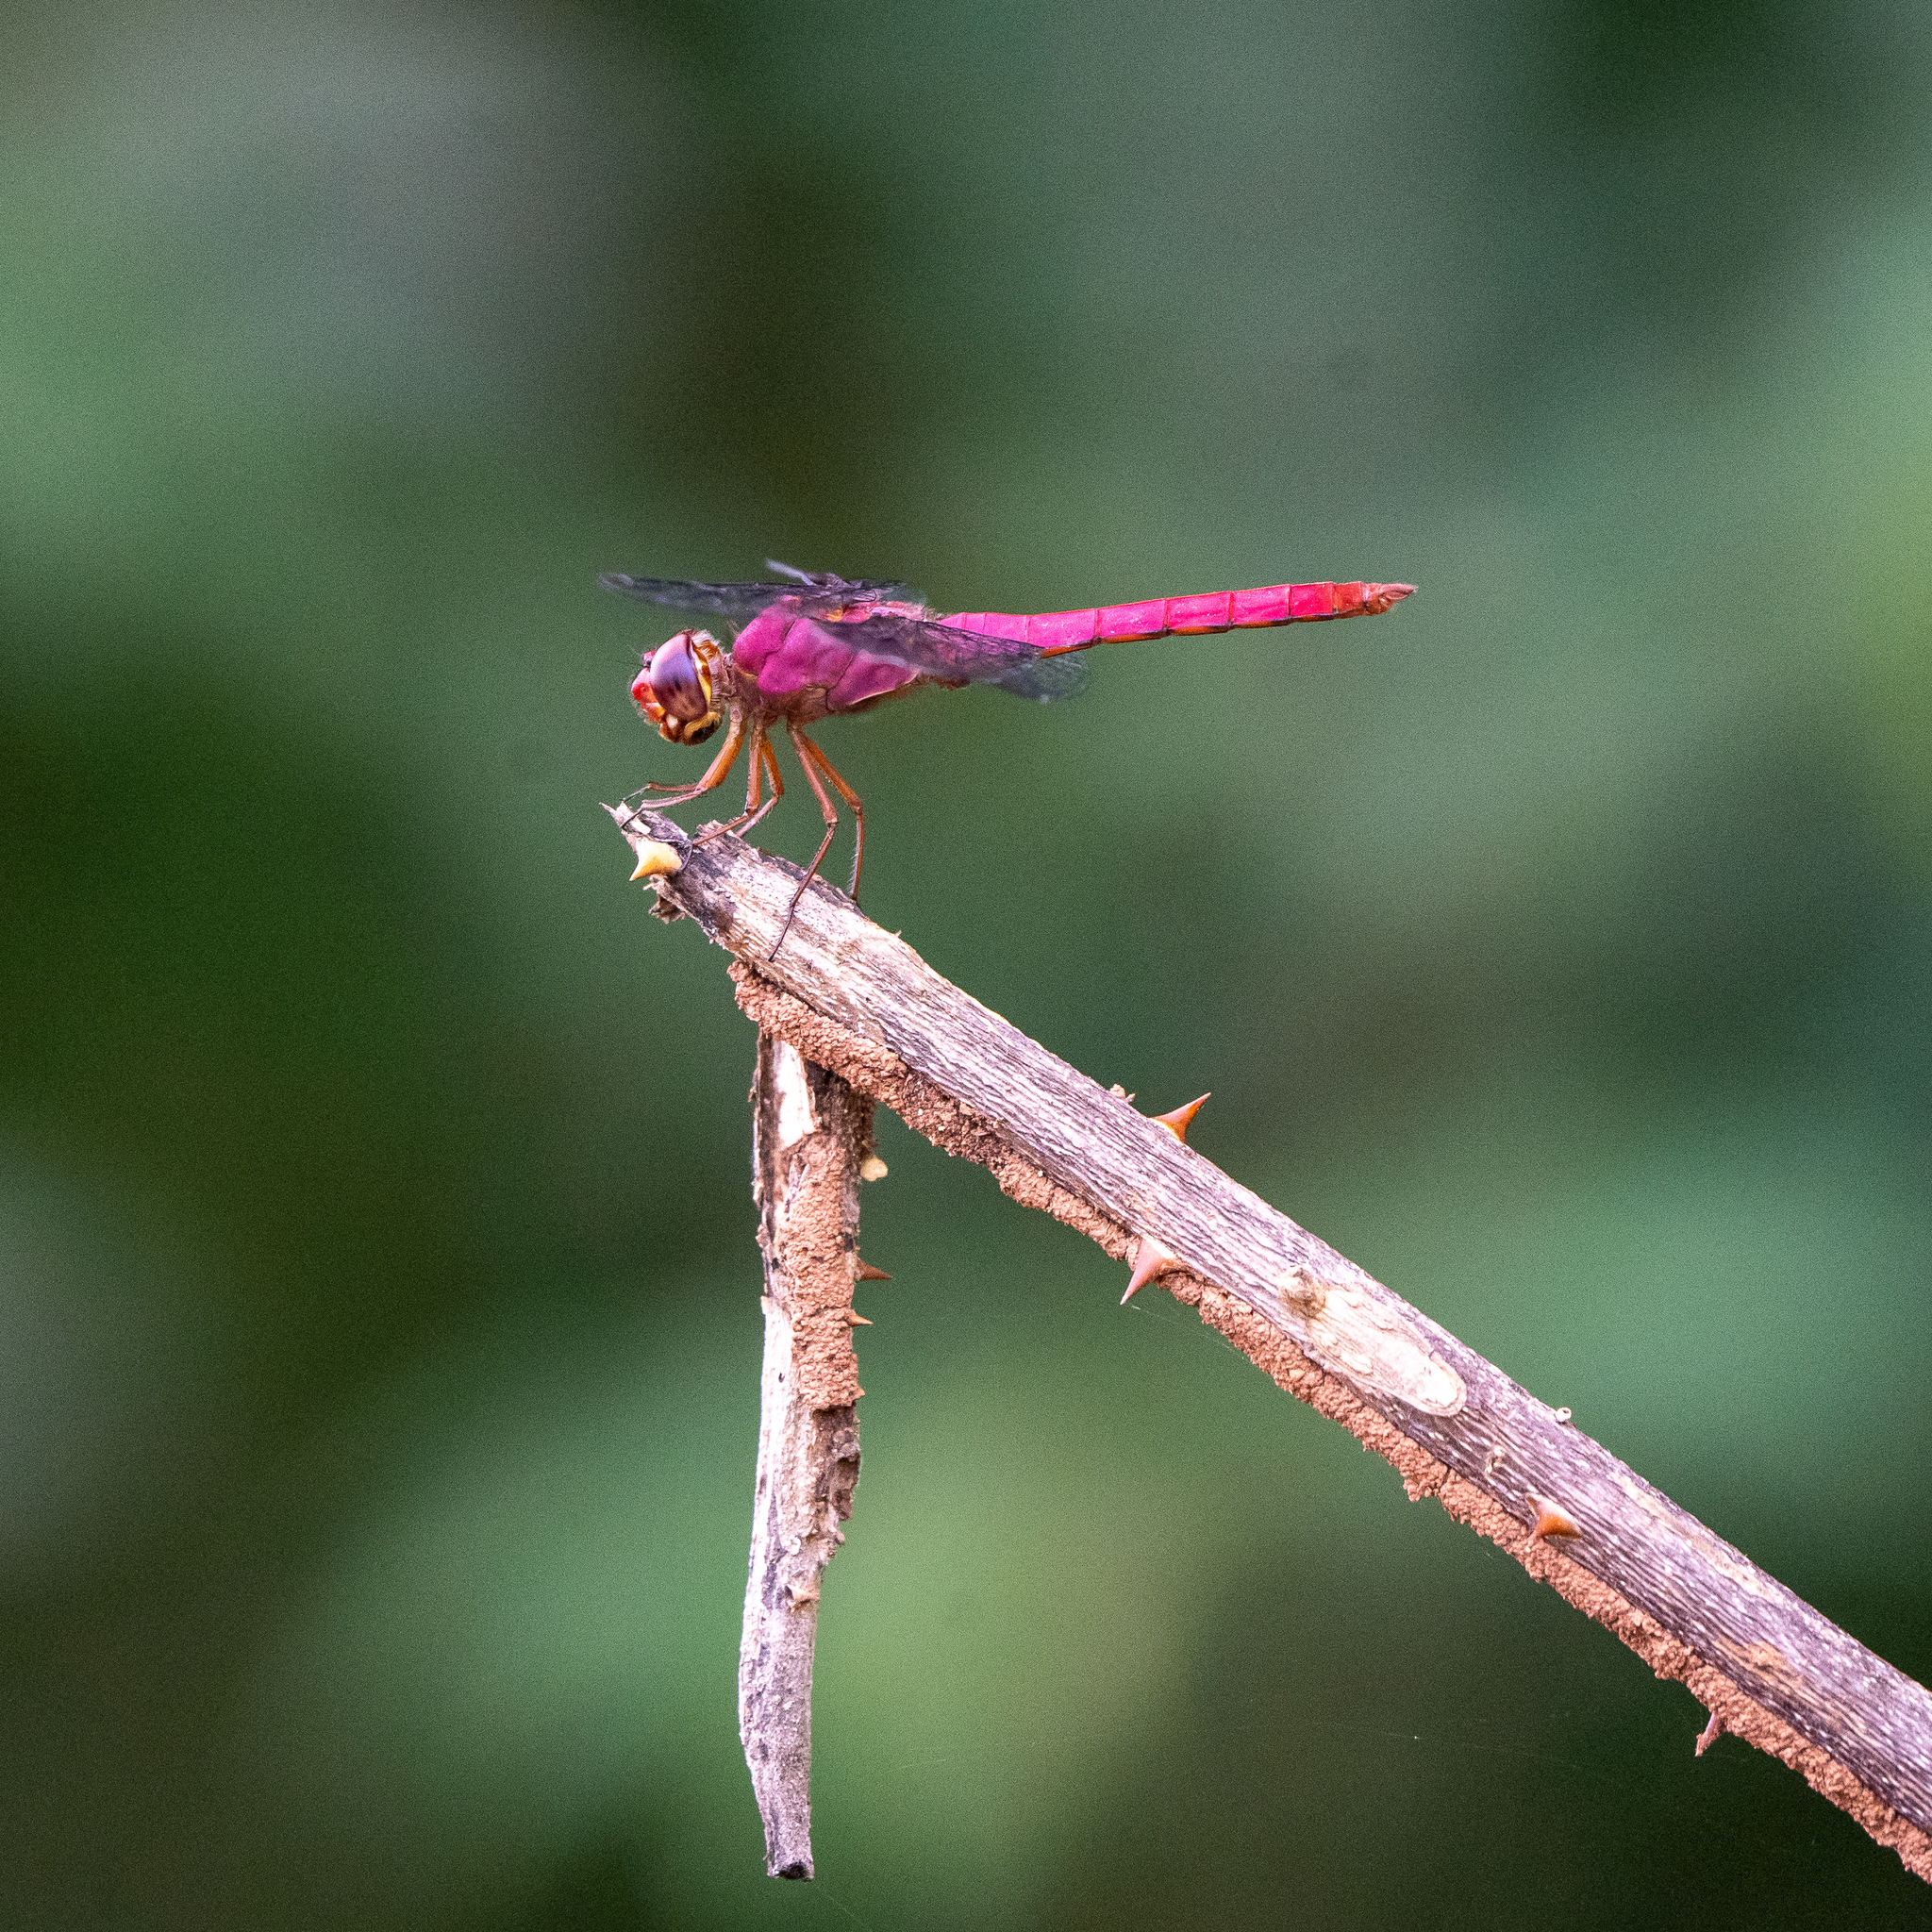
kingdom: Animalia
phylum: Arthropoda
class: Insecta
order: Odonata
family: Libellulidae
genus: Orthemis
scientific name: Orthemis discolor
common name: Carmine skimmer
